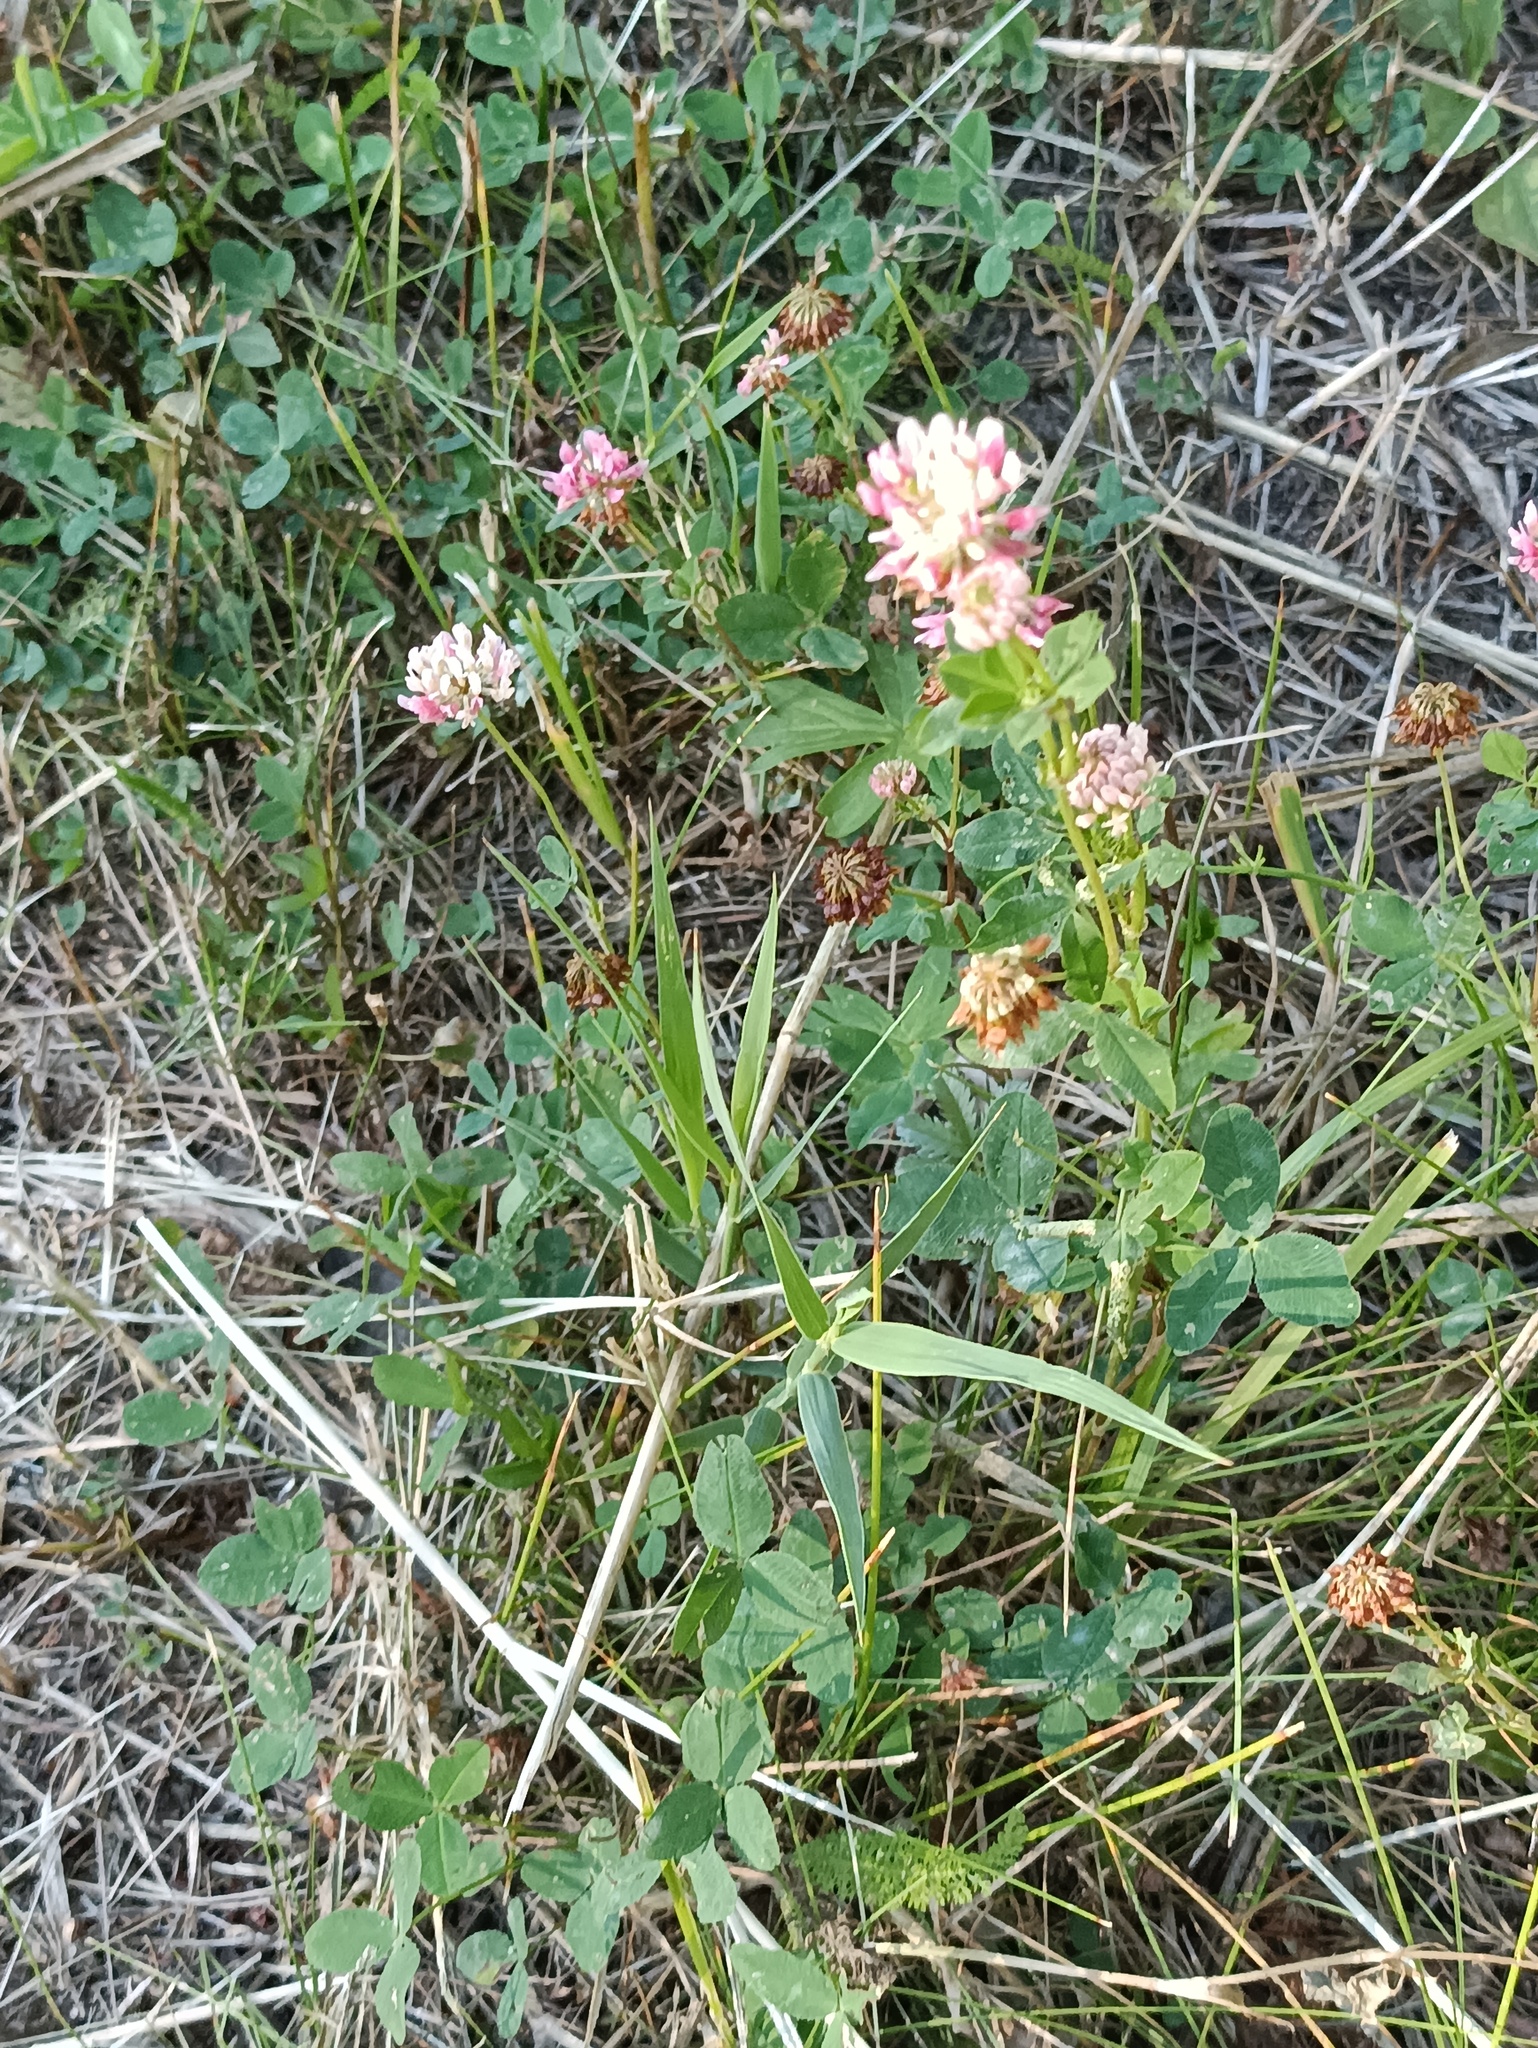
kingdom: Plantae
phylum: Tracheophyta
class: Magnoliopsida
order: Fabales
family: Fabaceae
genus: Trifolium
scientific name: Trifolium hybridum
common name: Alsike clover
